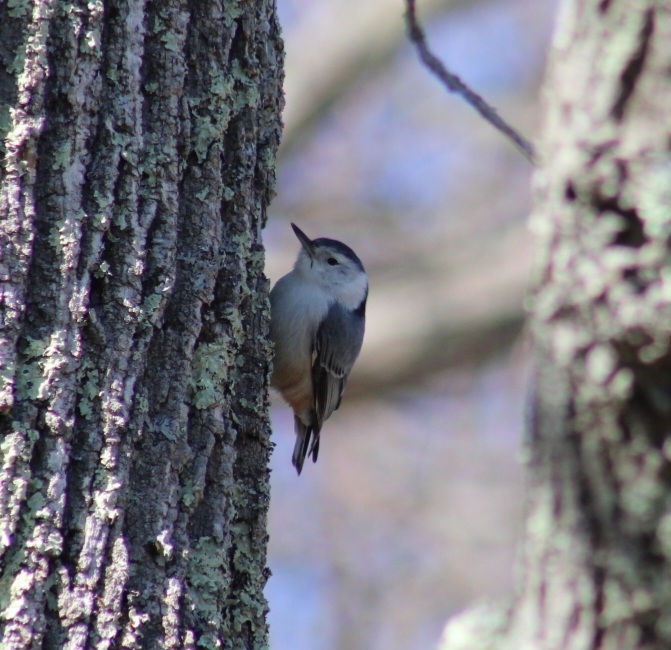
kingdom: Animalia
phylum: Chordata
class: Aves
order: Passeriformes
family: Sittidae
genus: Sitta
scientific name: Sitta carolinensis
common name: White-breasted nuthatch
